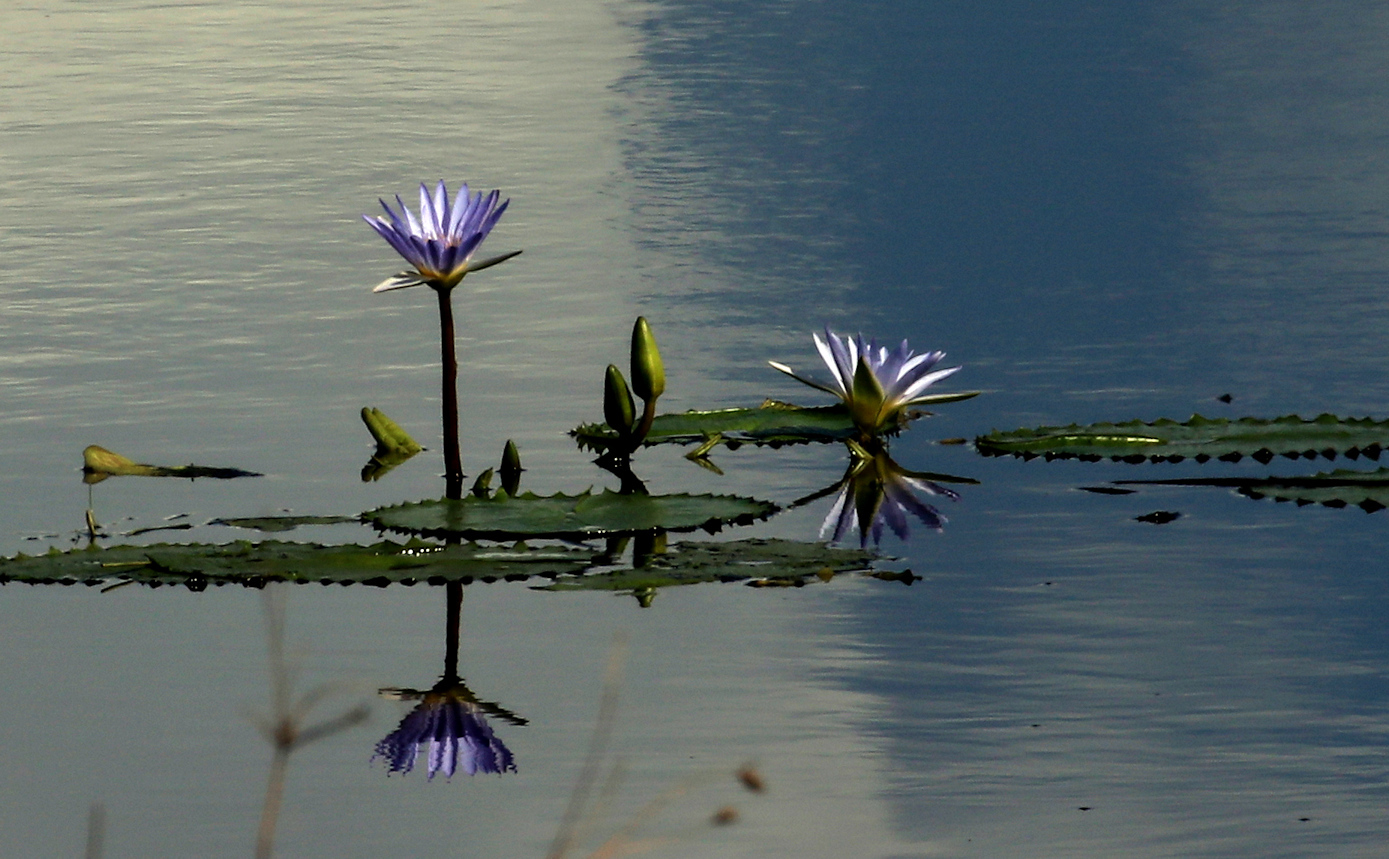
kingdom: Plantae
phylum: Tracheophyta
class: Magnoliopsida
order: Nymphaeales
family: Nymphaeaceae
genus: Nymphaea
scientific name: Nymphaea nouchali
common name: Blue lotus
